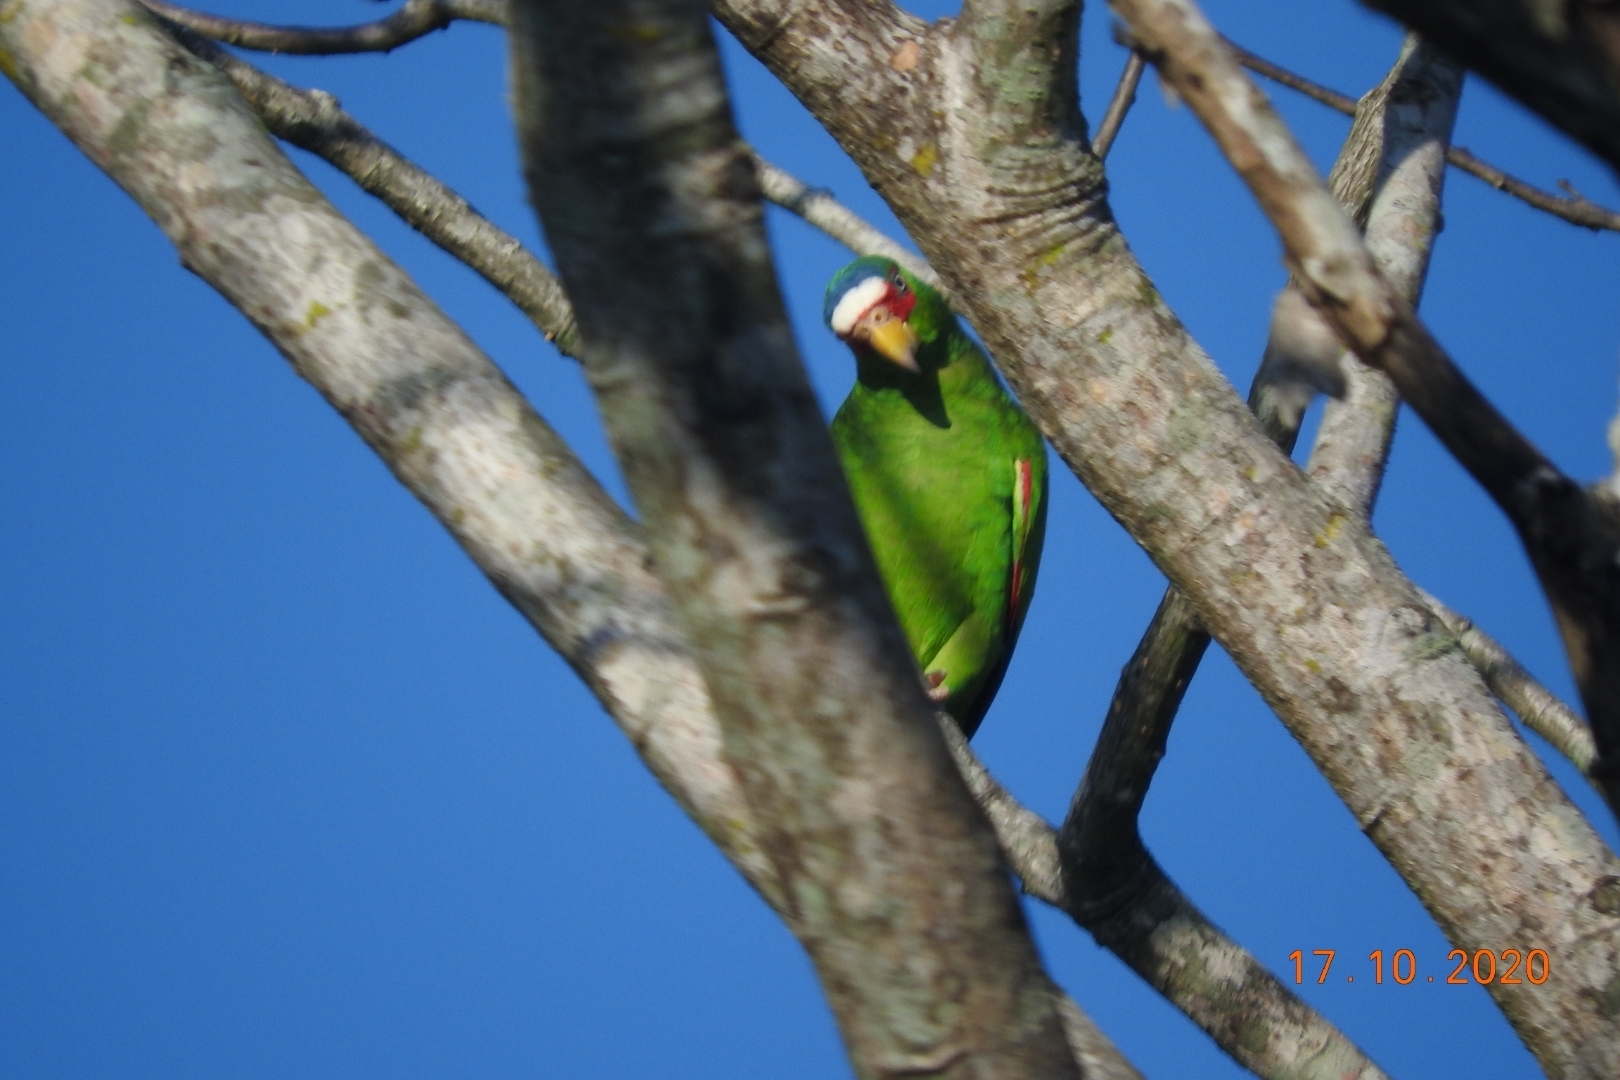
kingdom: Animalia
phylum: Chordata
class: Aves
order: Psittaciformes
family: Psittacidae
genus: Amazona
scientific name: Amazona albifrons
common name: White-fronted amazon
